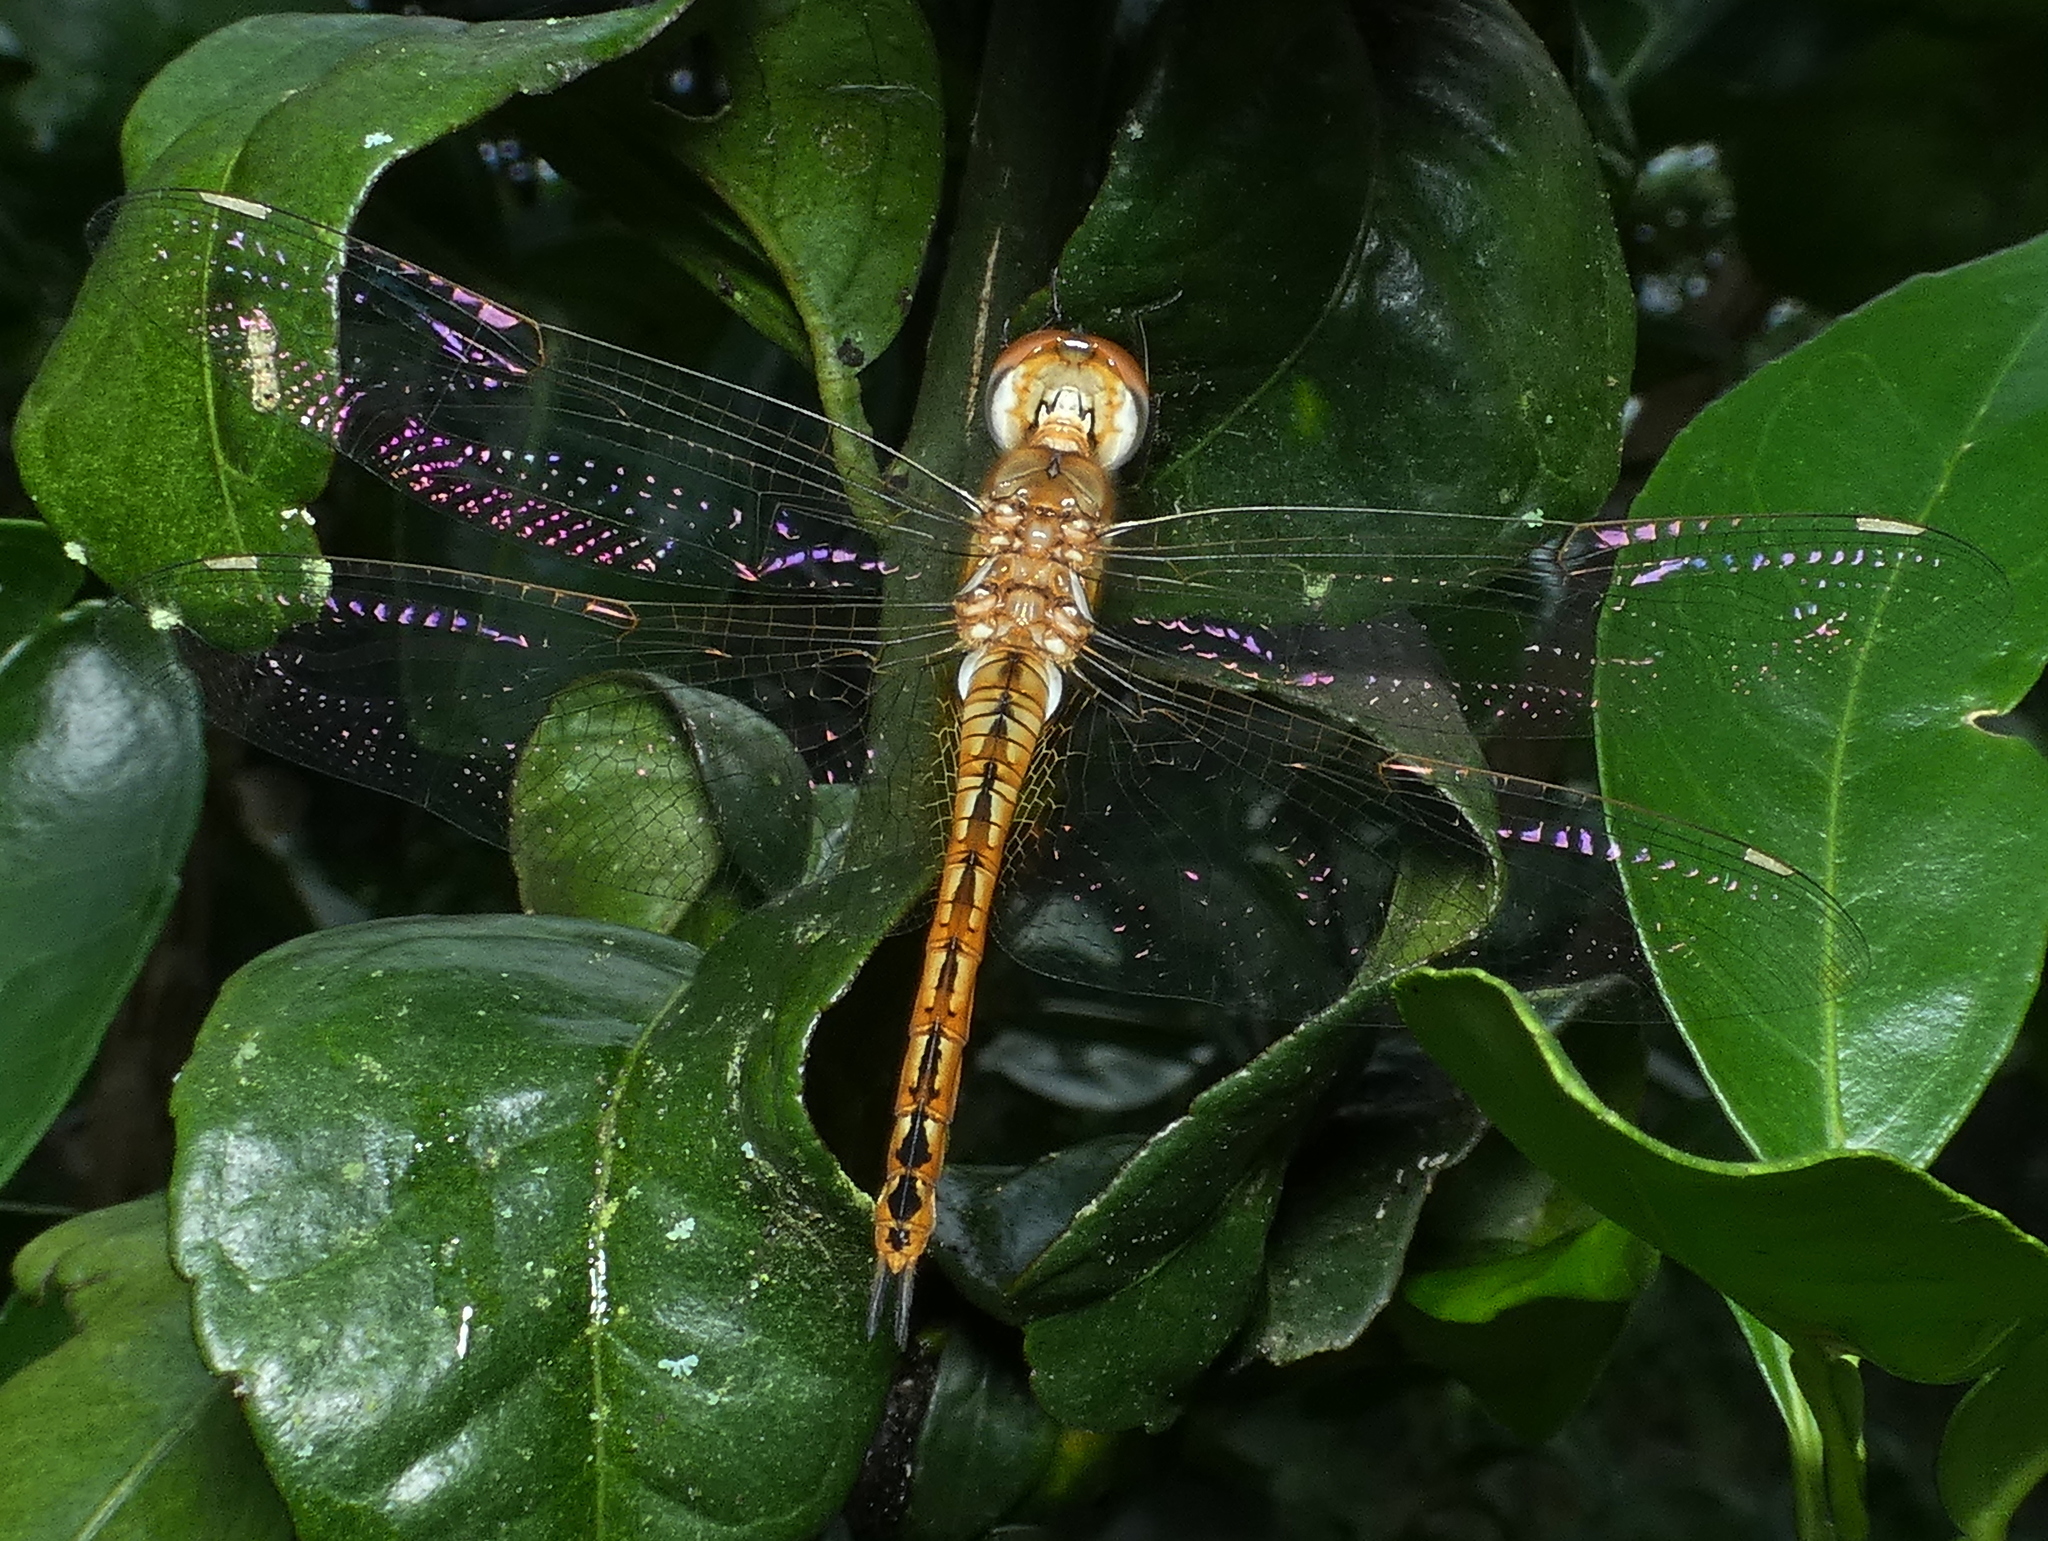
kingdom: Animalia
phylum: Arthropoda
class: Insecta
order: Odonata
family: Libellulidae
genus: Pantala
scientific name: Pantala flavescens
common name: Wandering glider
